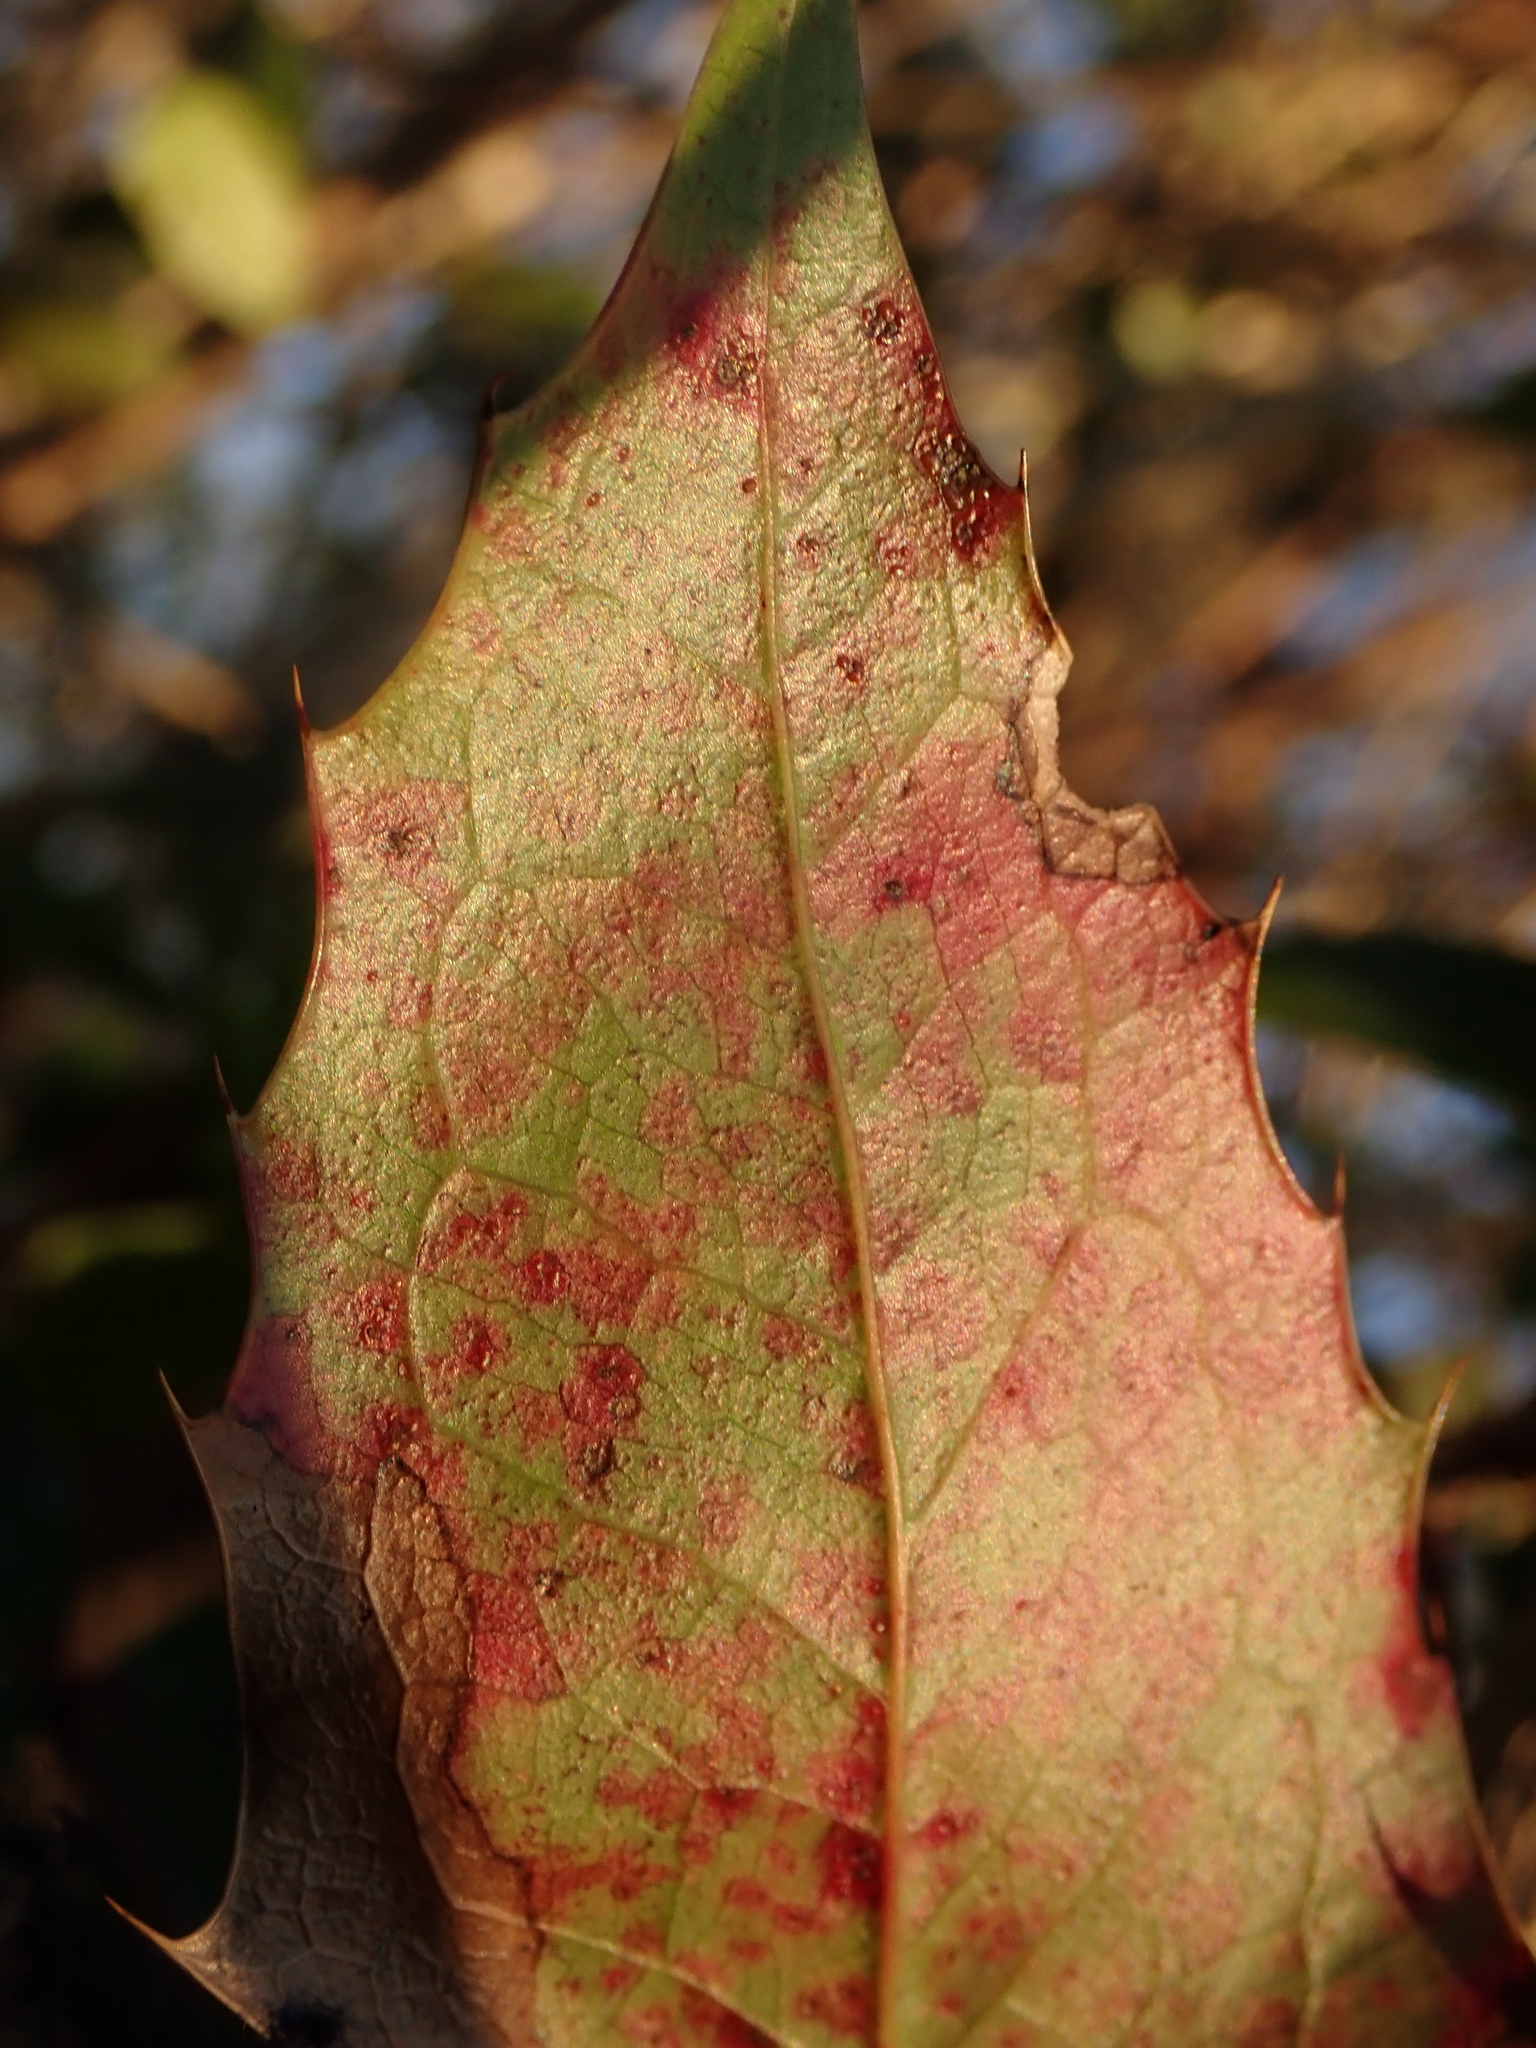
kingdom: Fungi
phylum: Basidiomycota
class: Pucciniomycetes
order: Pucciniales
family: Pucciniaceae
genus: Cumminsiella
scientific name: Cumminsiella mirabilissima
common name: Mahonia rust
